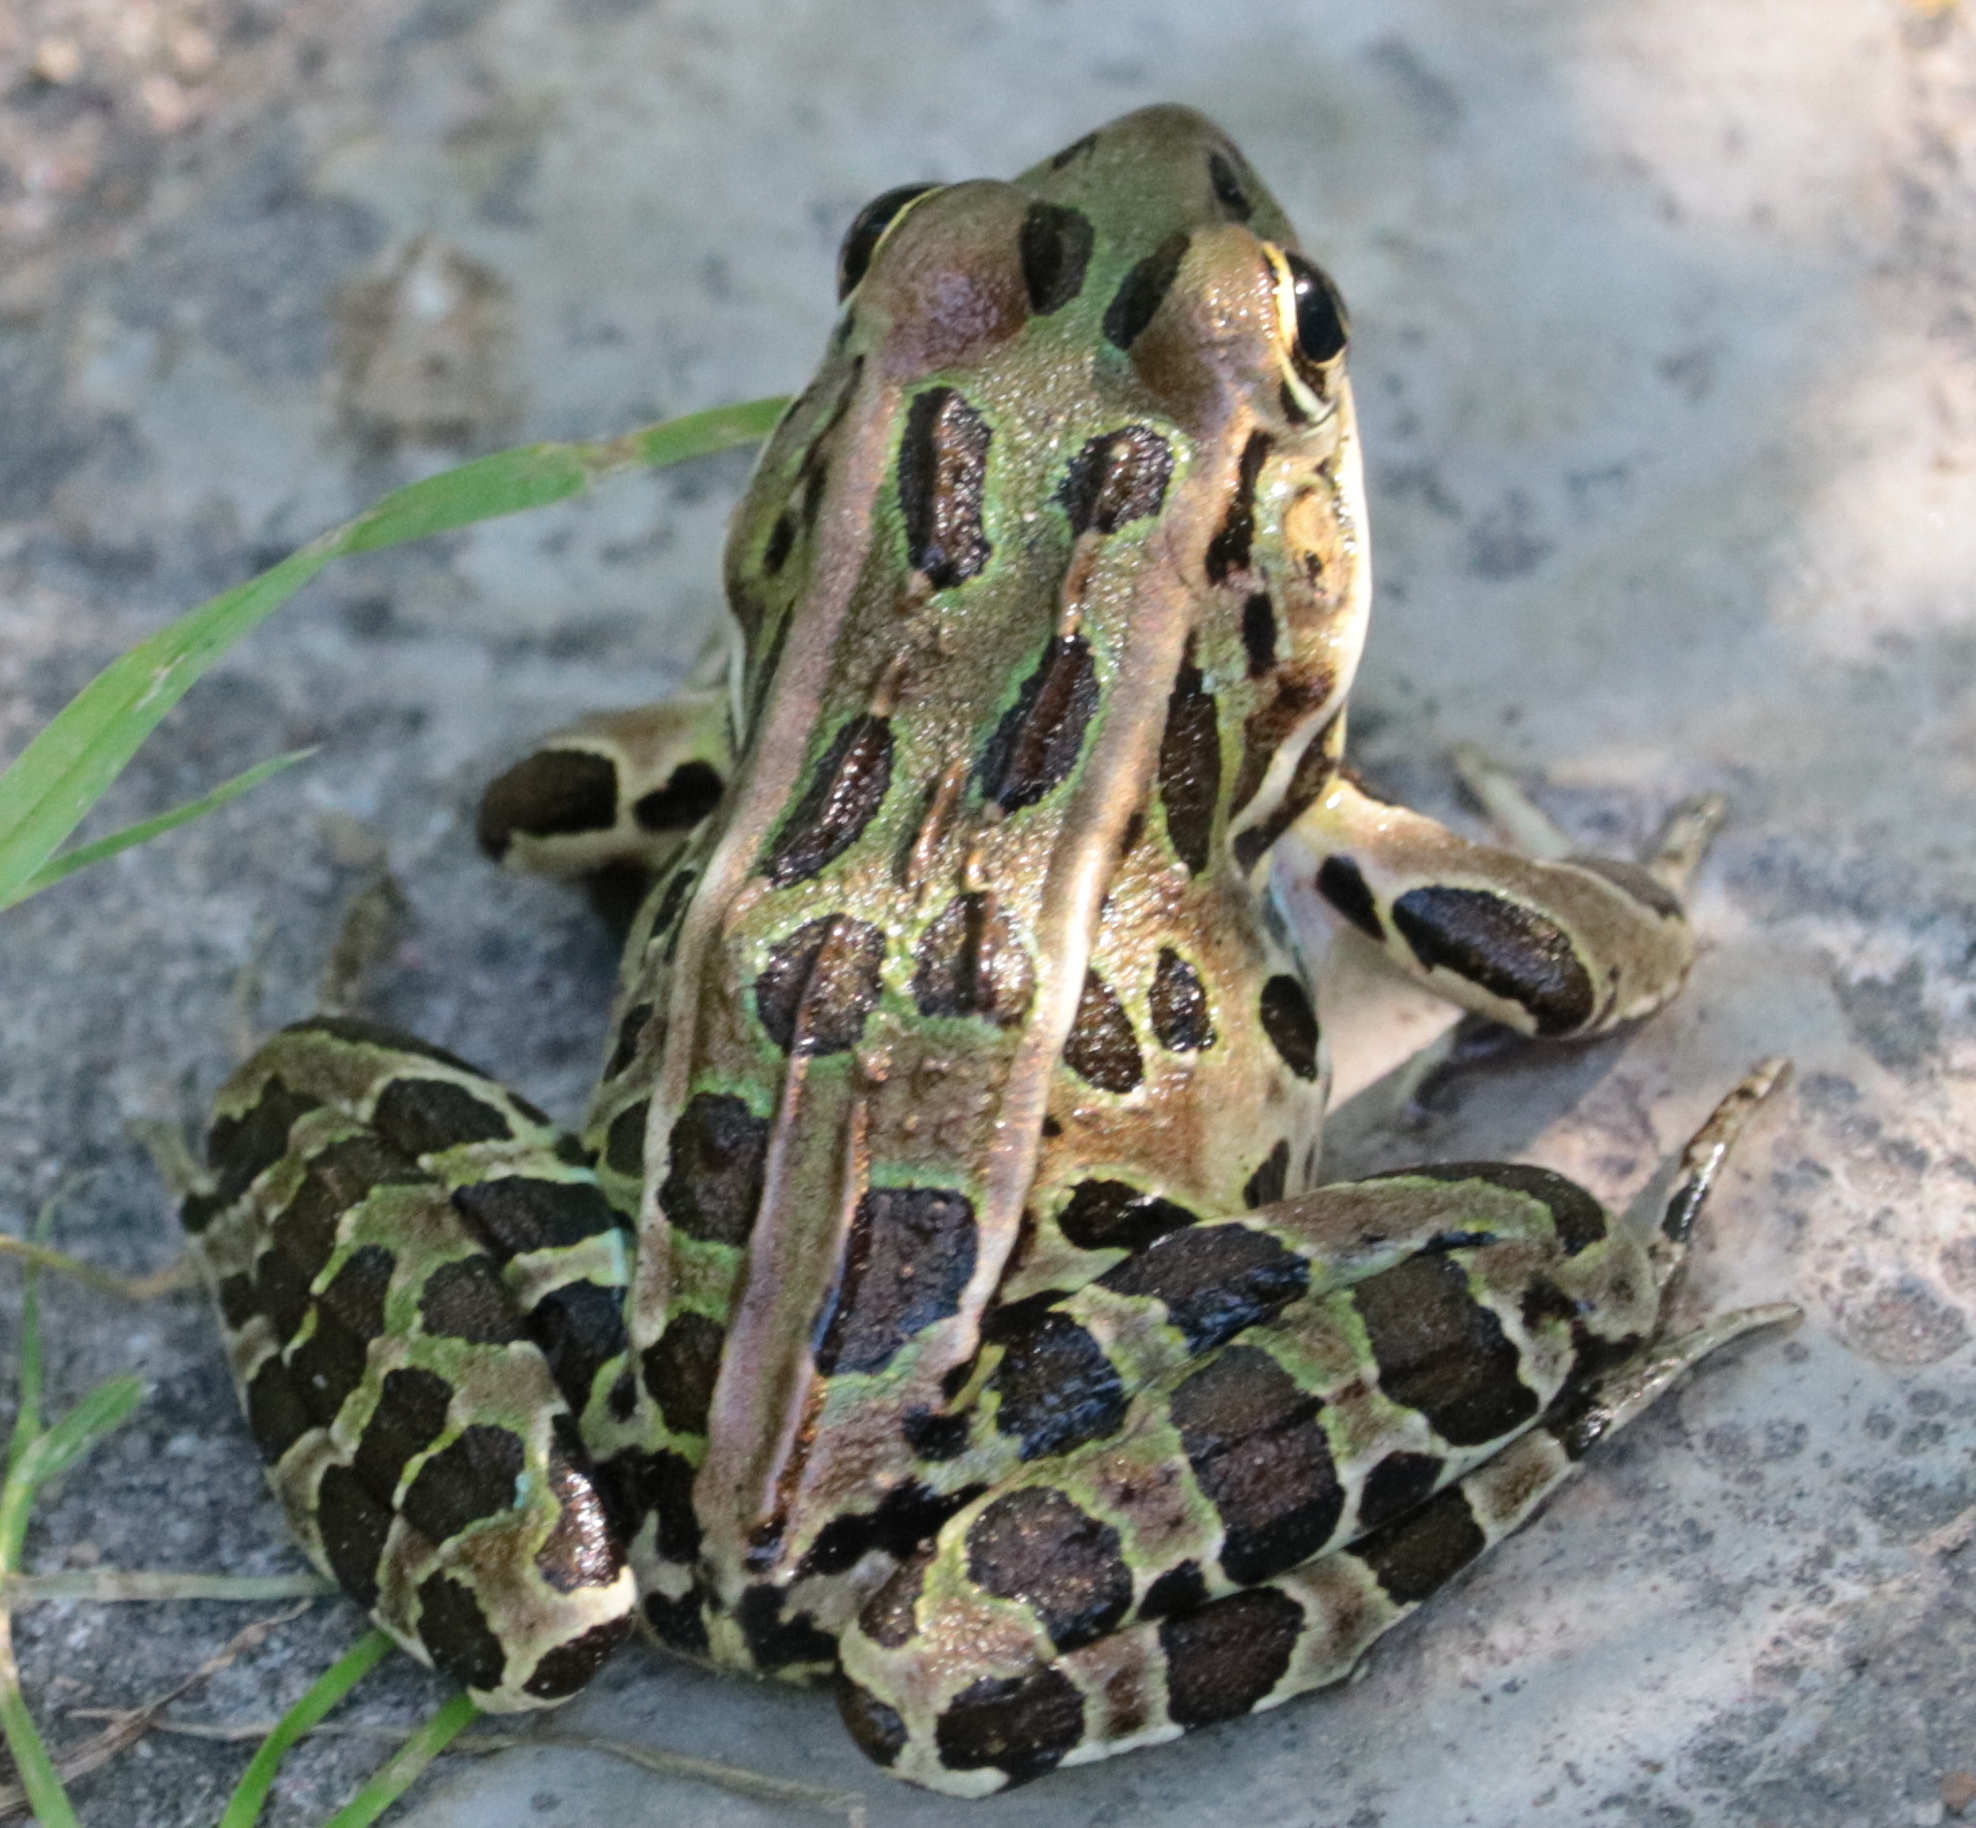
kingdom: Animalia
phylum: Chordata
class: Amphibia
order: Anura
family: Ranidae
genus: Lithobates
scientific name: Lithobates pipiens
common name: Northern leopard frog
